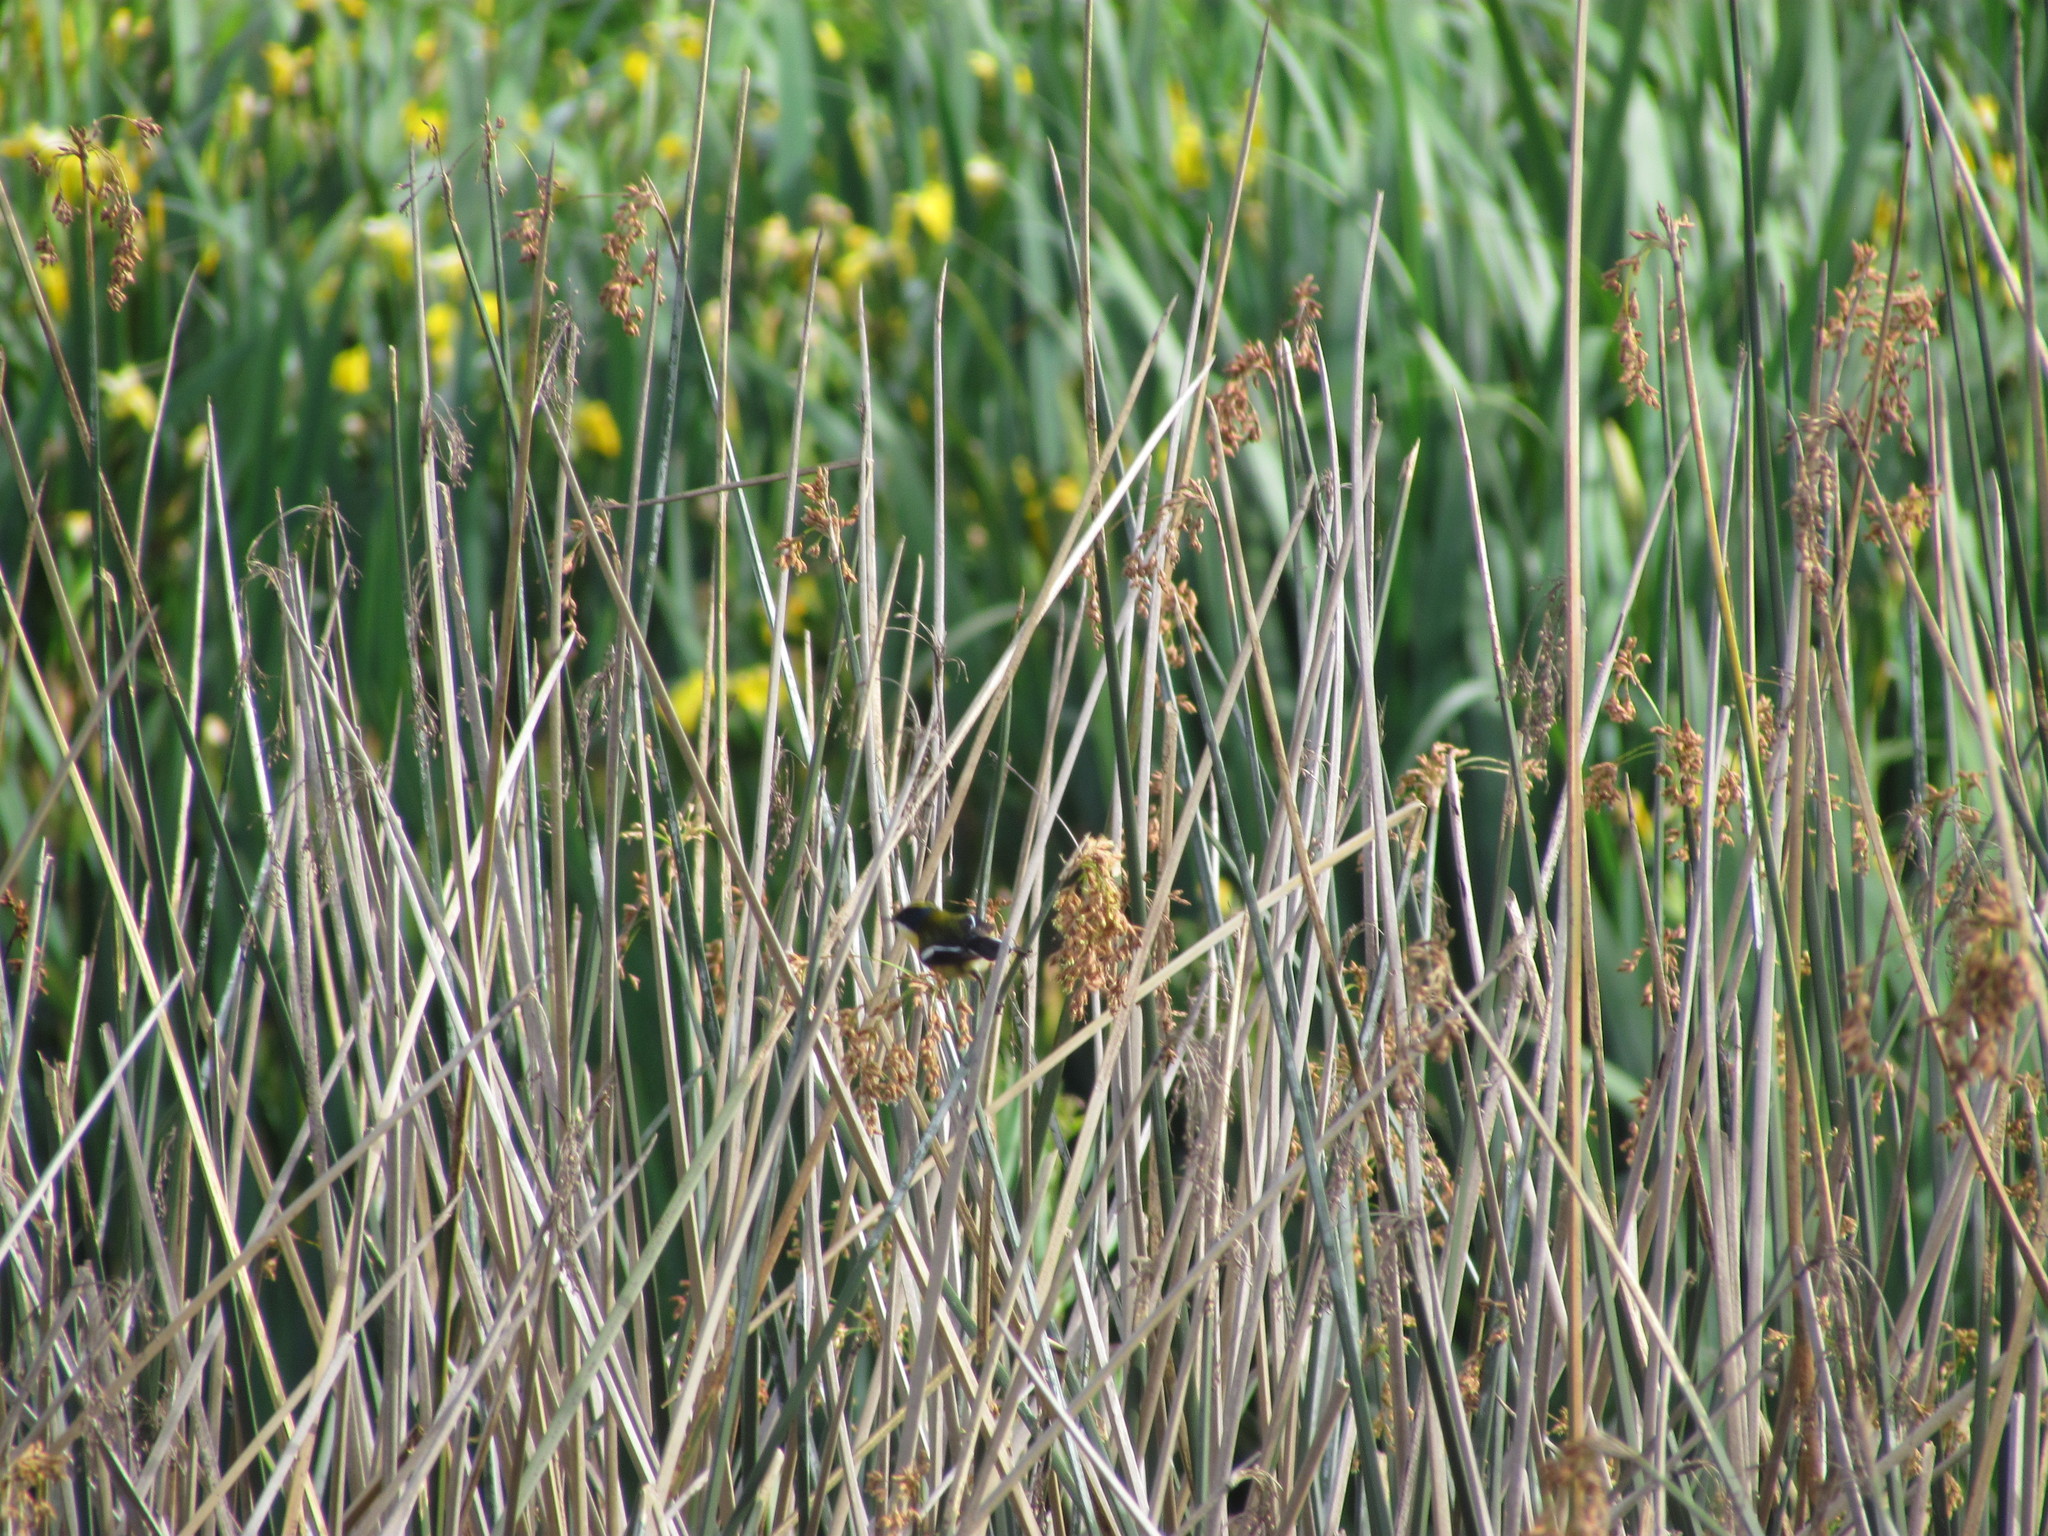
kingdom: Animalia
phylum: Chordata
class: Aves
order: Passeriformes
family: Tyrannidae
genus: Tachuris
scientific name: Tachuris rubrigastra
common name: Many-colored rush tyrant
